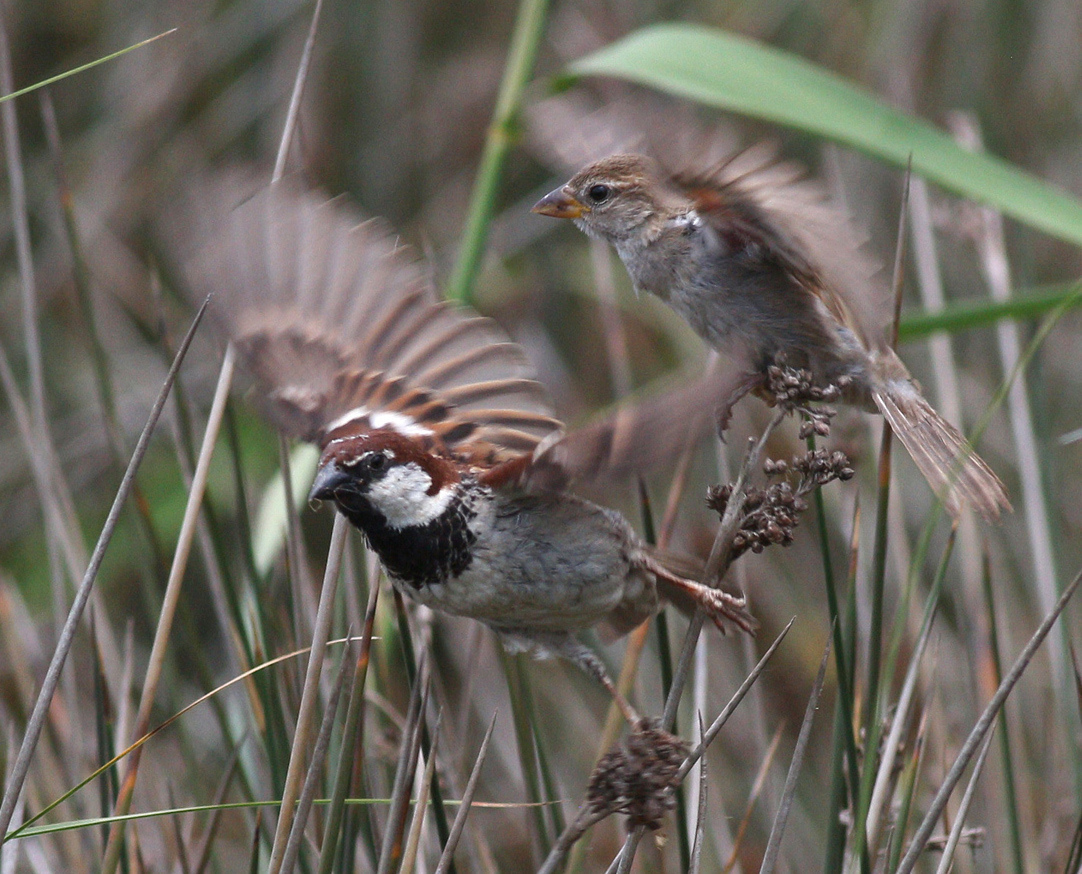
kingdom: Animalia
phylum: Chordata
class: Aves
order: Passeriformes
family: Passeridae
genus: Passer
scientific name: Passer italiae
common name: Italian sparrow
